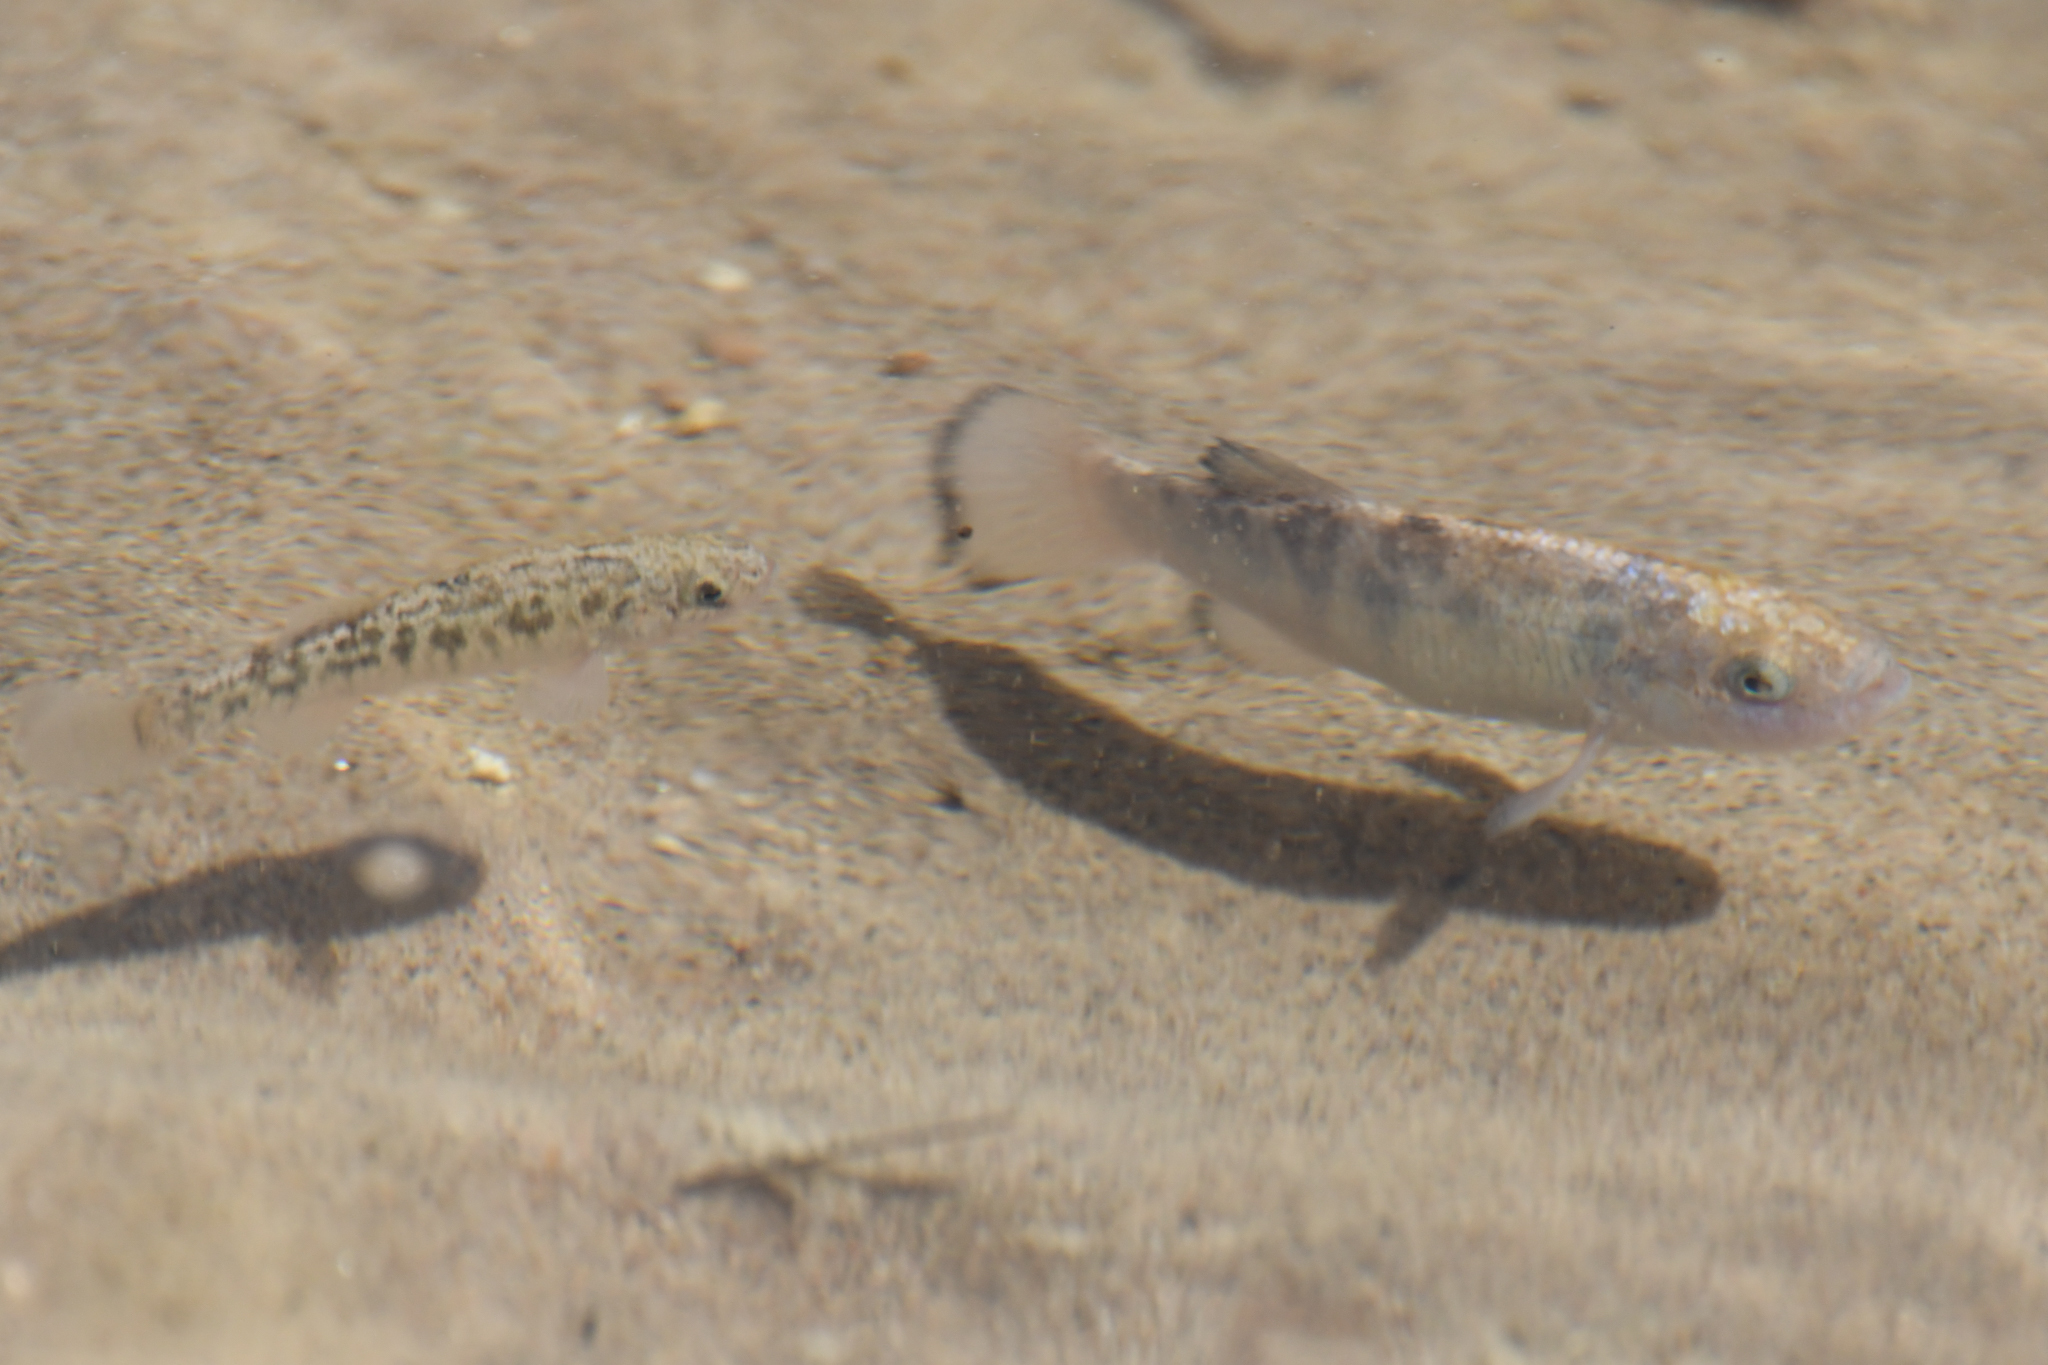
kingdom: Animalia
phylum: Chordata
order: Cyprinodontiformes
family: Cyprinodontidae
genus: Cyprinodon
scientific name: Cyprinodon salinus
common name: Cottonball marsh pupfish
